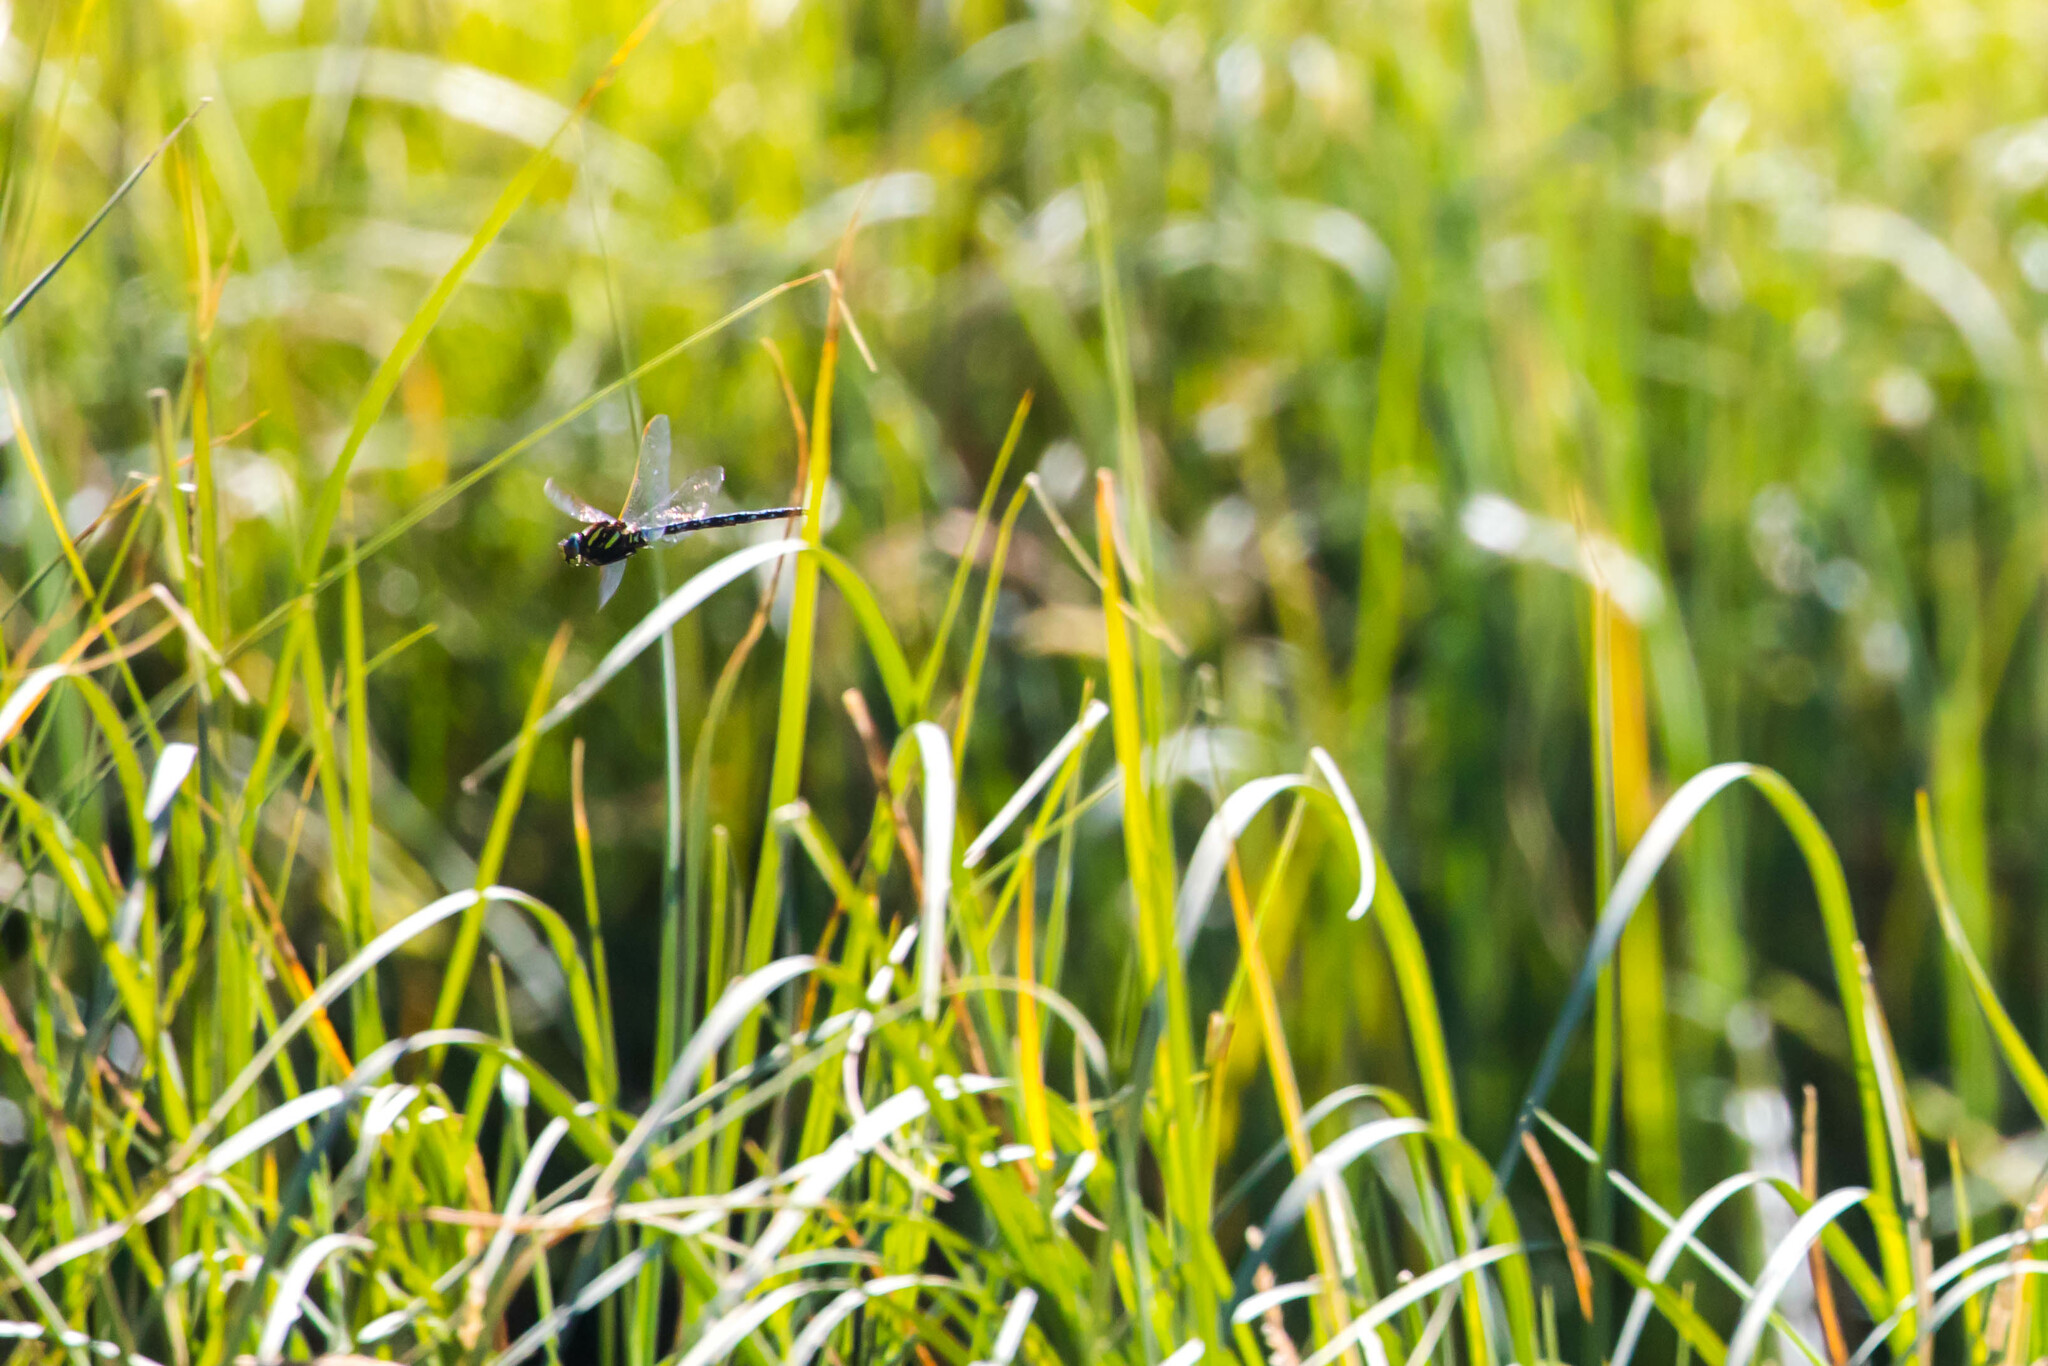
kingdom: Animalia
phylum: Arthropoda
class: Insecta
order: Odonata
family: Aeshnidae
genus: Aeshna
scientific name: Aeshna juncea
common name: Moorland hawker
